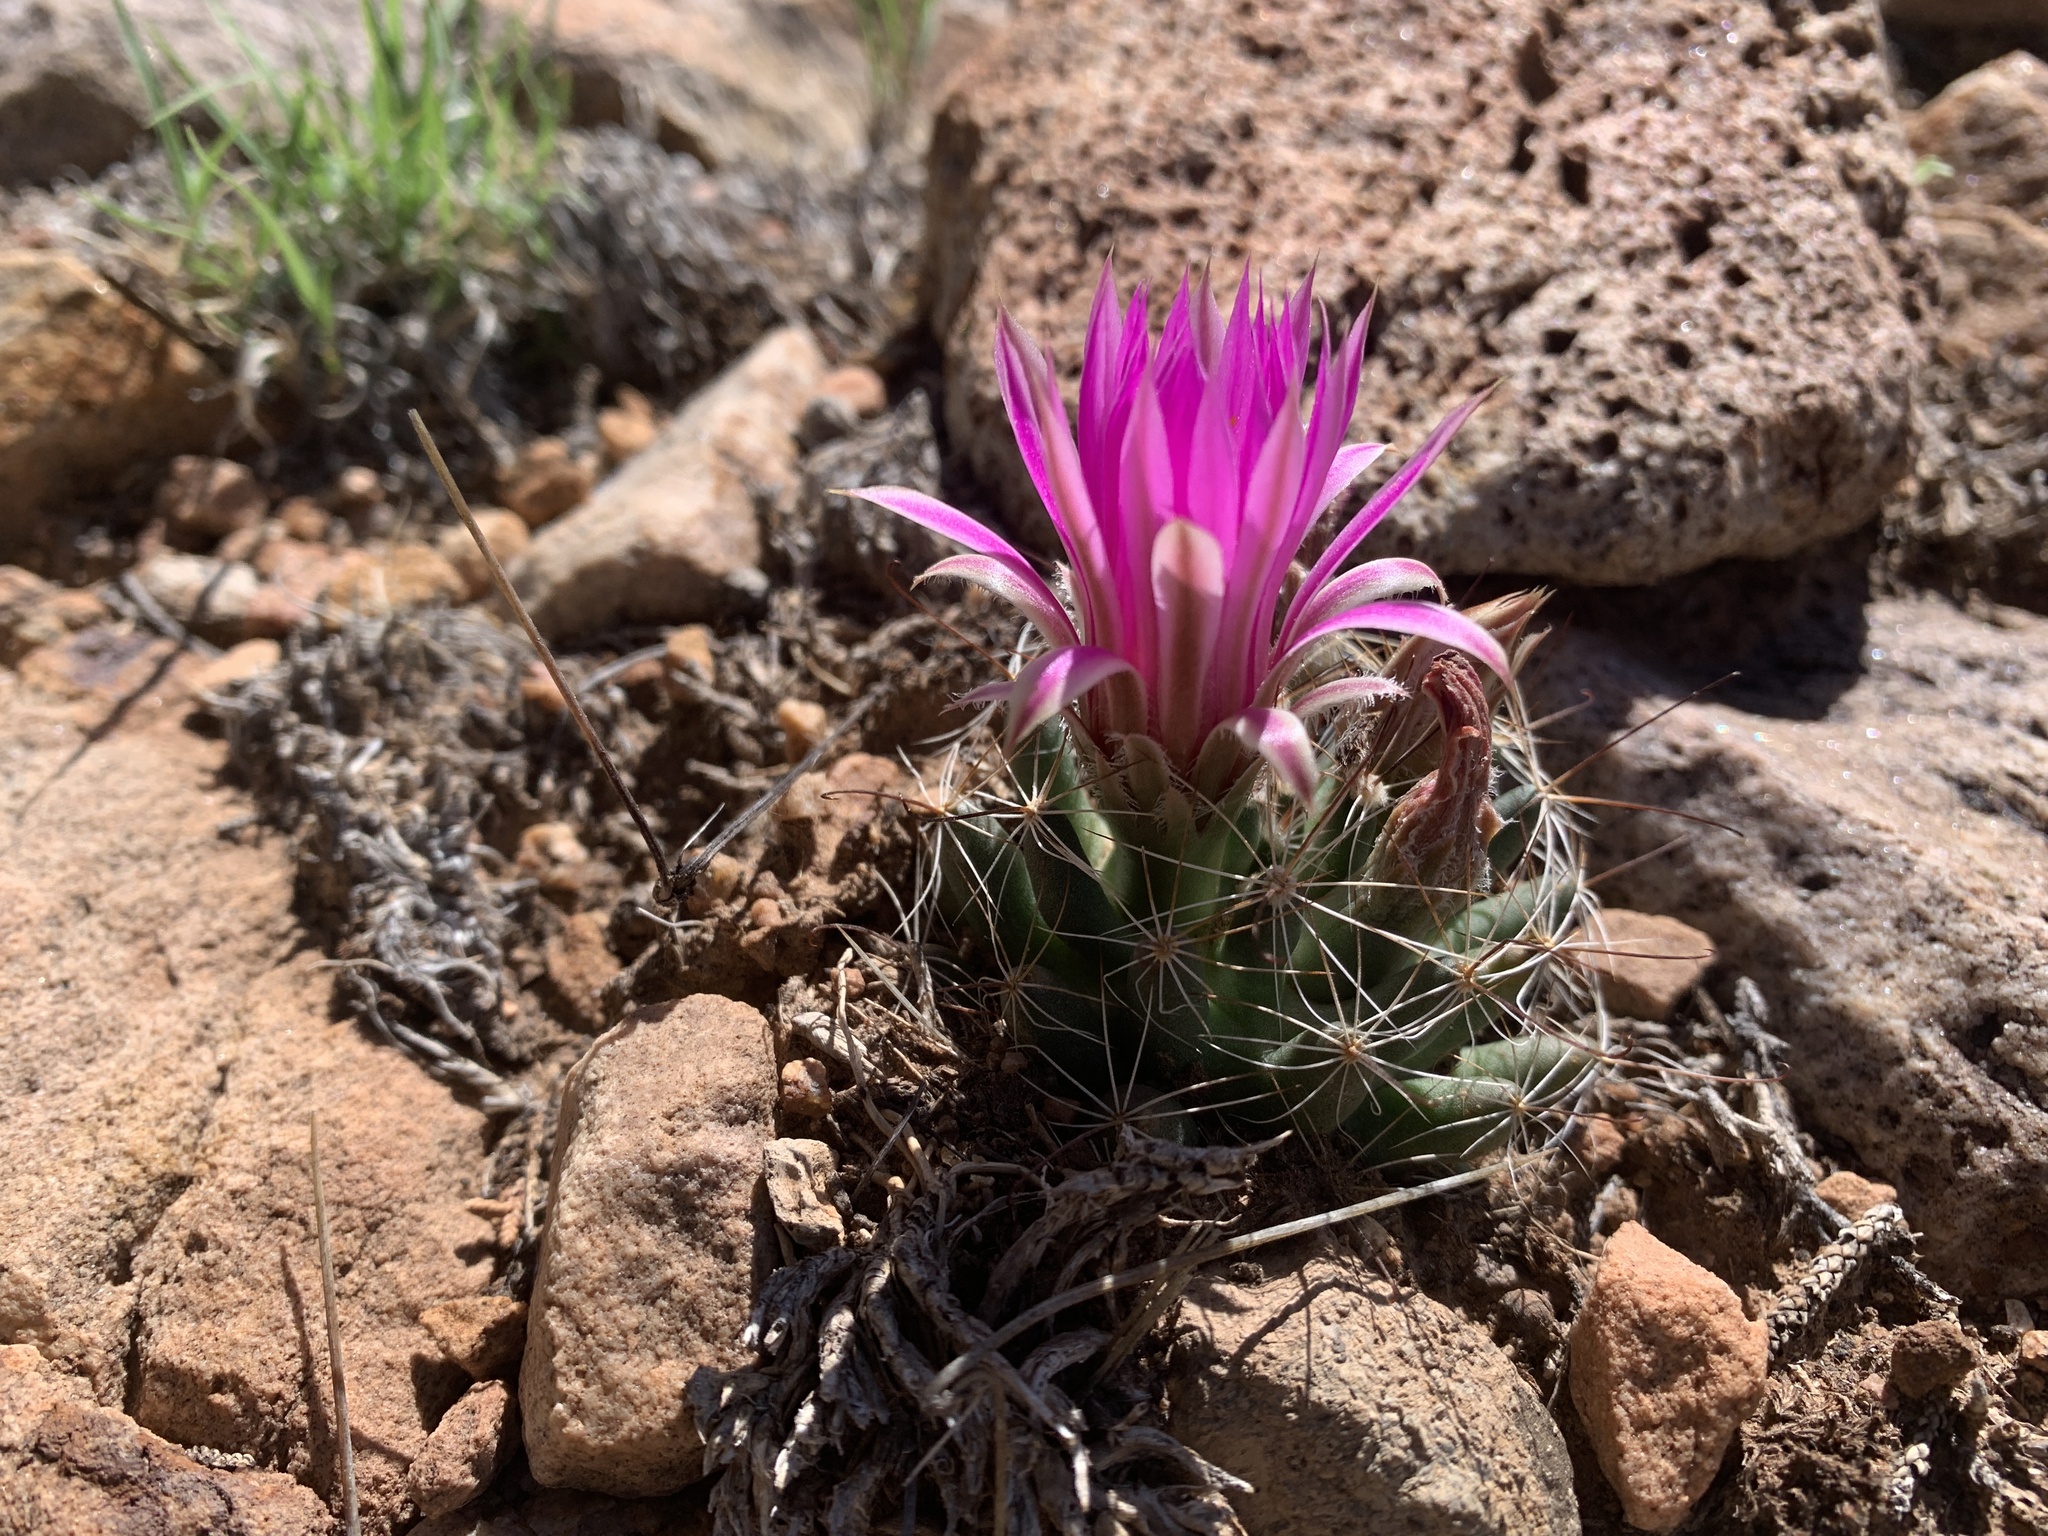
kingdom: Plantae
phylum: Tracheophyta
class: Magnoliopsida
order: Caryophyllales
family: Cactaceae
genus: Cochemiea
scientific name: Cochemiea wrightii
